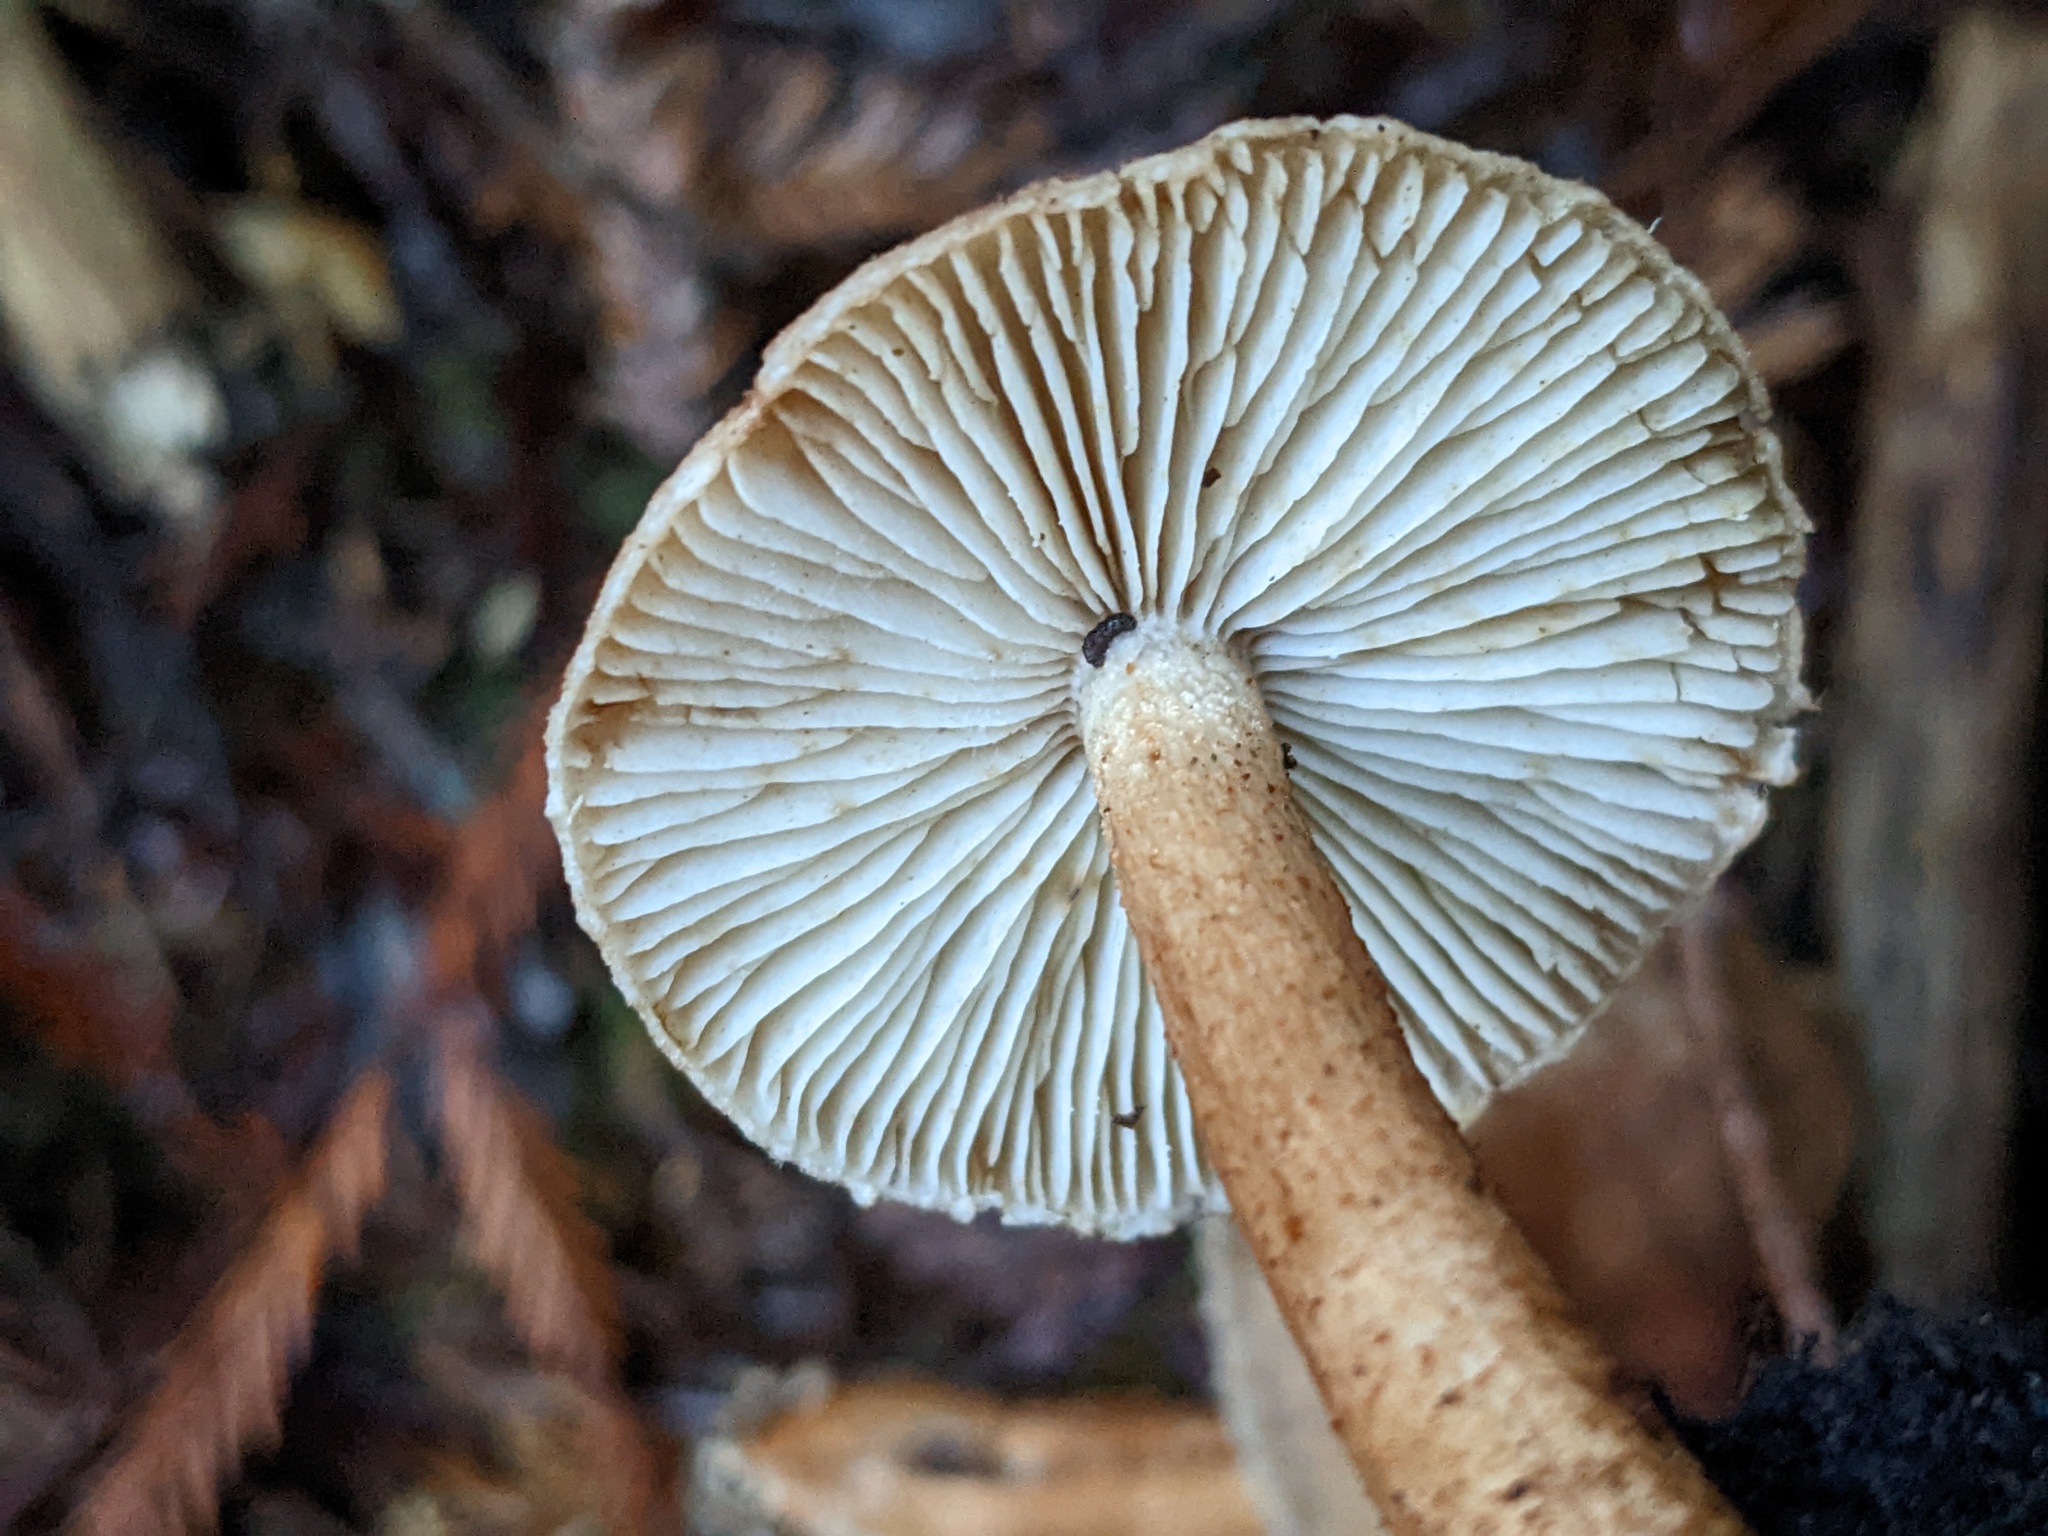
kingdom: Fungi
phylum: Basidiomycota
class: Agaricomycetes
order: Agaricales
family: Tricholomataceae
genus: Tricholoma
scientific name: Tricholoma vaccinum
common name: Scaly knight
